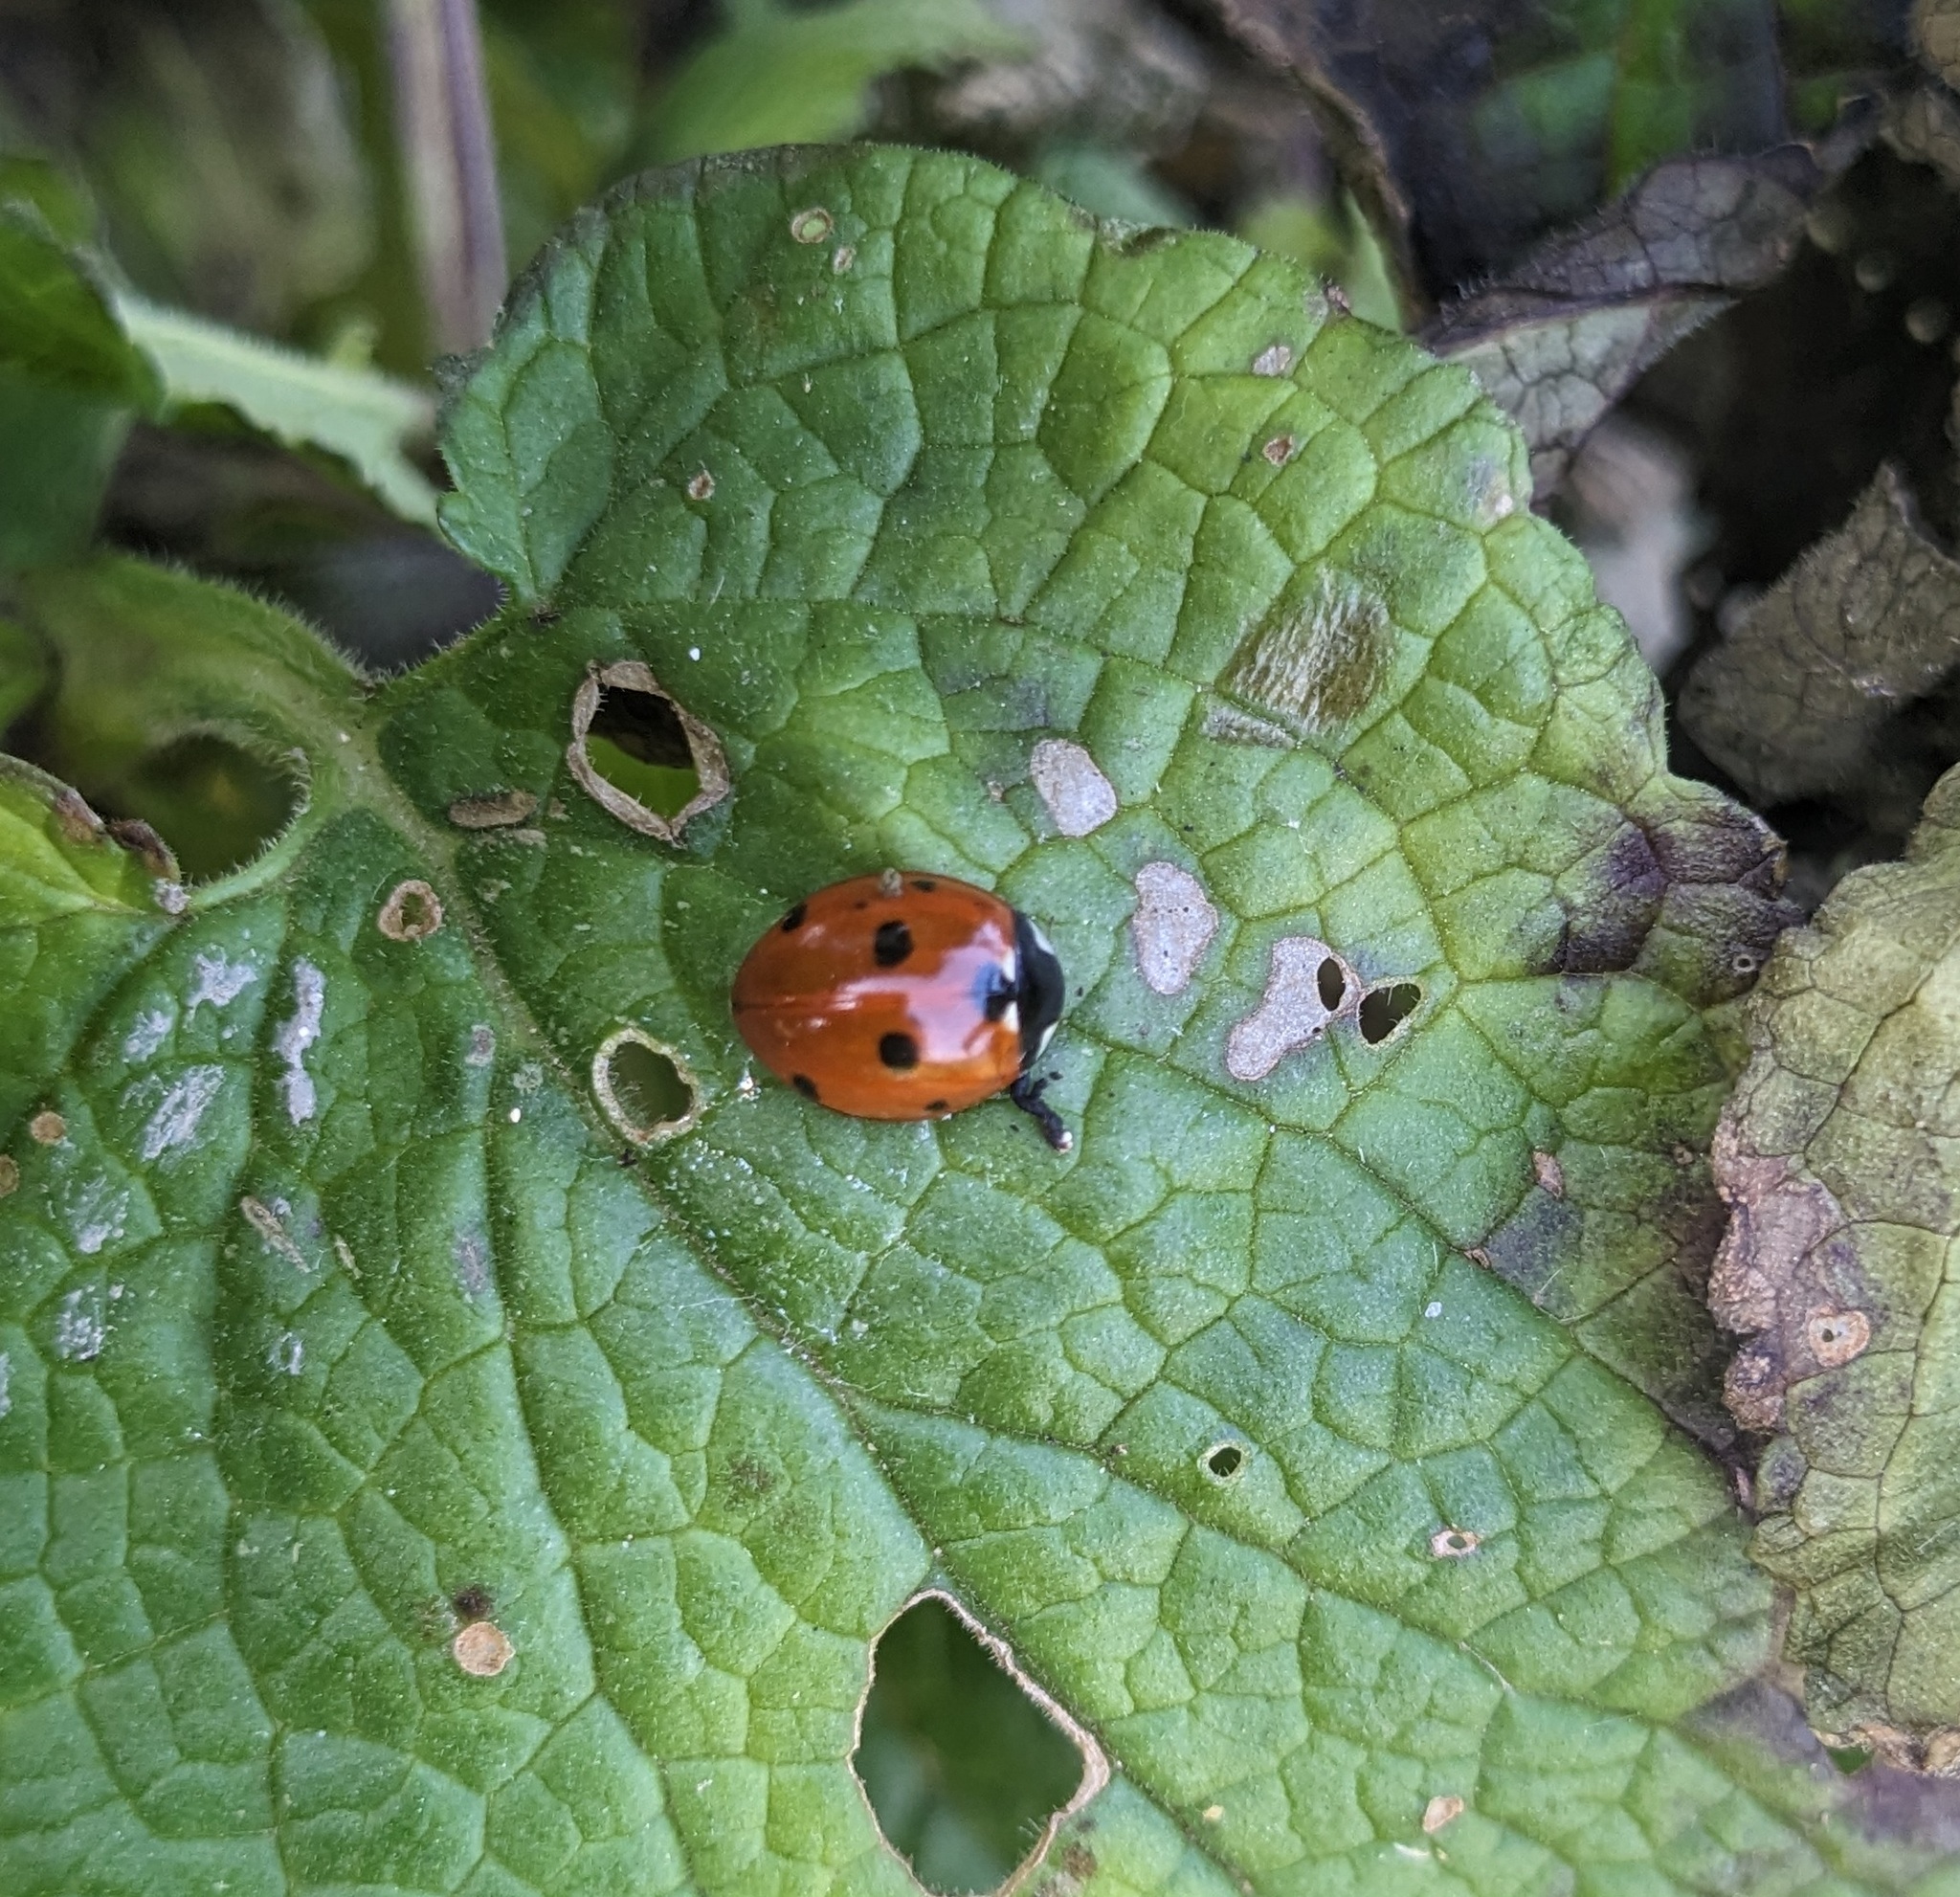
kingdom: Animalia
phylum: Arthropoda
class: Insecta
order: Coleoptera
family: Coccinellidae
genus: Coccinella
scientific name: Coccinella septempunctata
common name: Sevenspotted lady beetle
